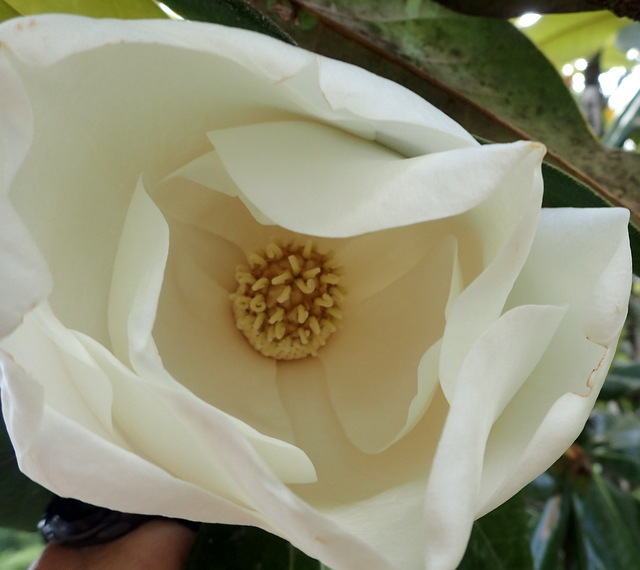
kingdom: Plantae
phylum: Tracheophyta
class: Magnoliopsida
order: Magnoliales
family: Magnoliaceae
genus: Magnolia
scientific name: Magnolia grandiflora
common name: Southern magnolia
